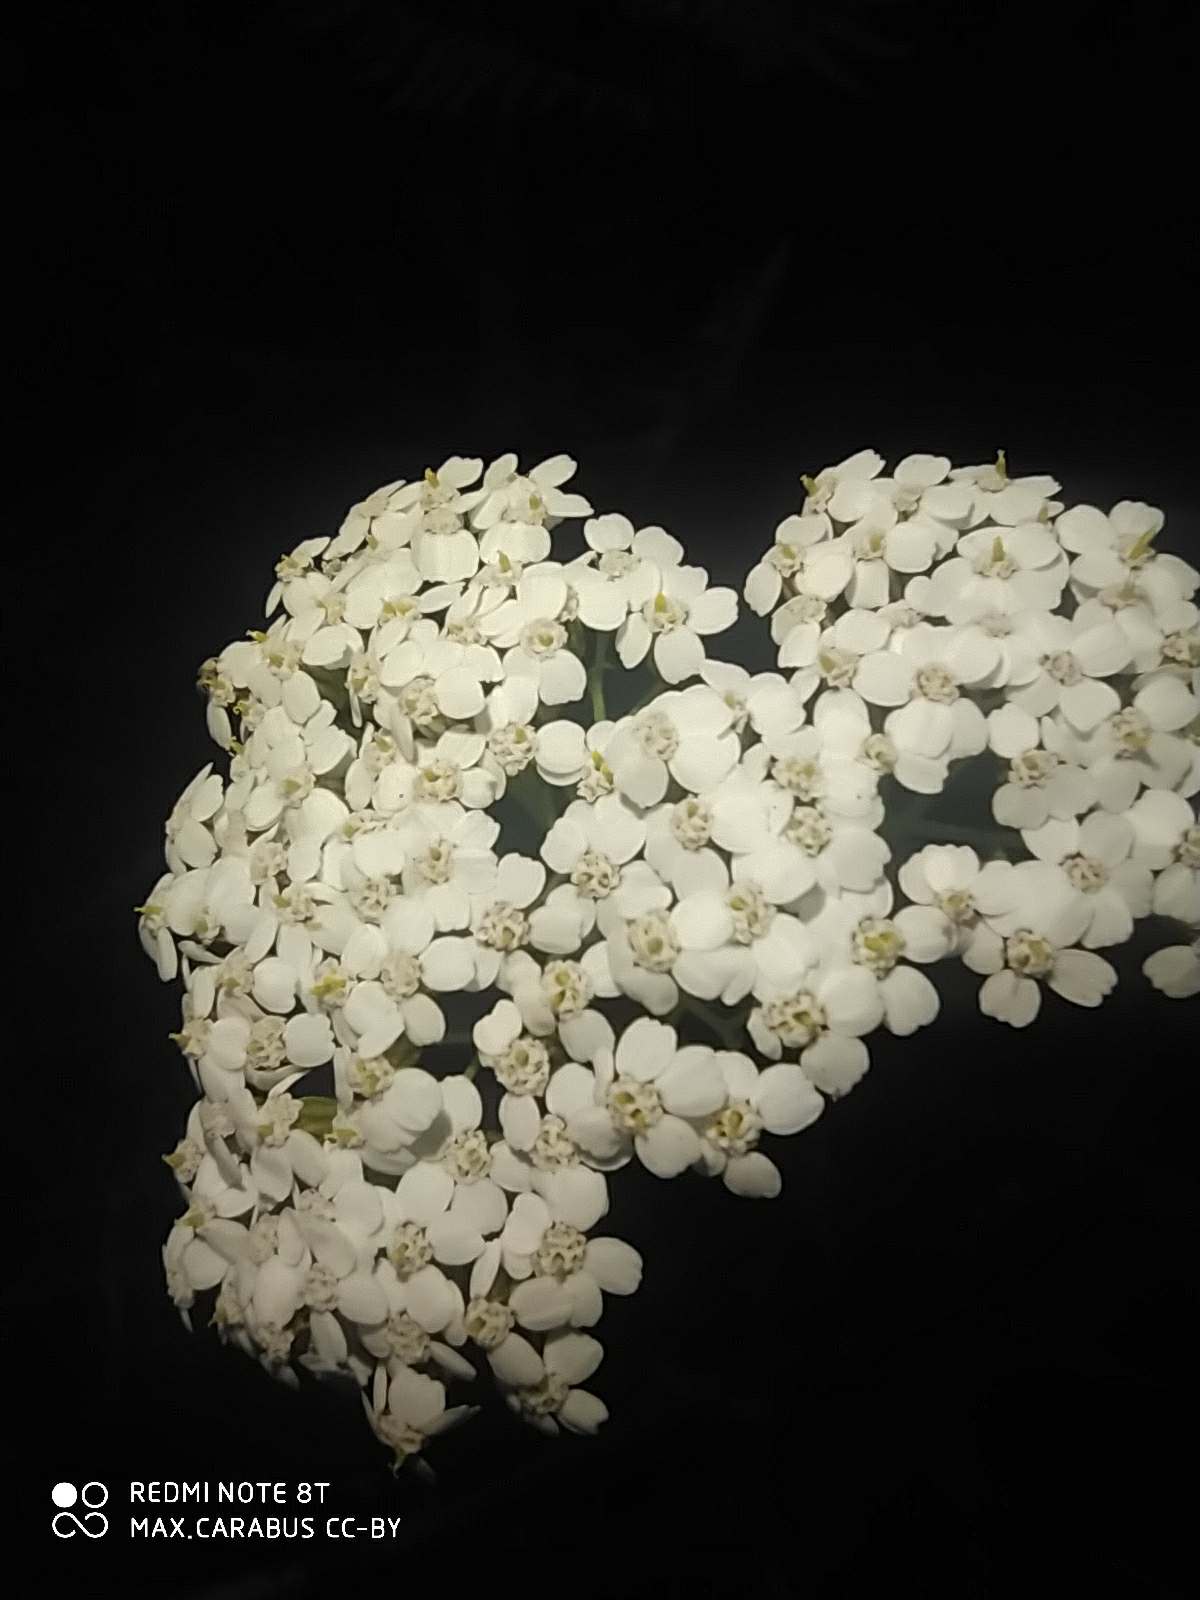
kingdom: Plantae
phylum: Tracheophyta
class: Magnoliopsida
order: Asterales
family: Asteraceae
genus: Achillea
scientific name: Achillea millefolium
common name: Yarrow
